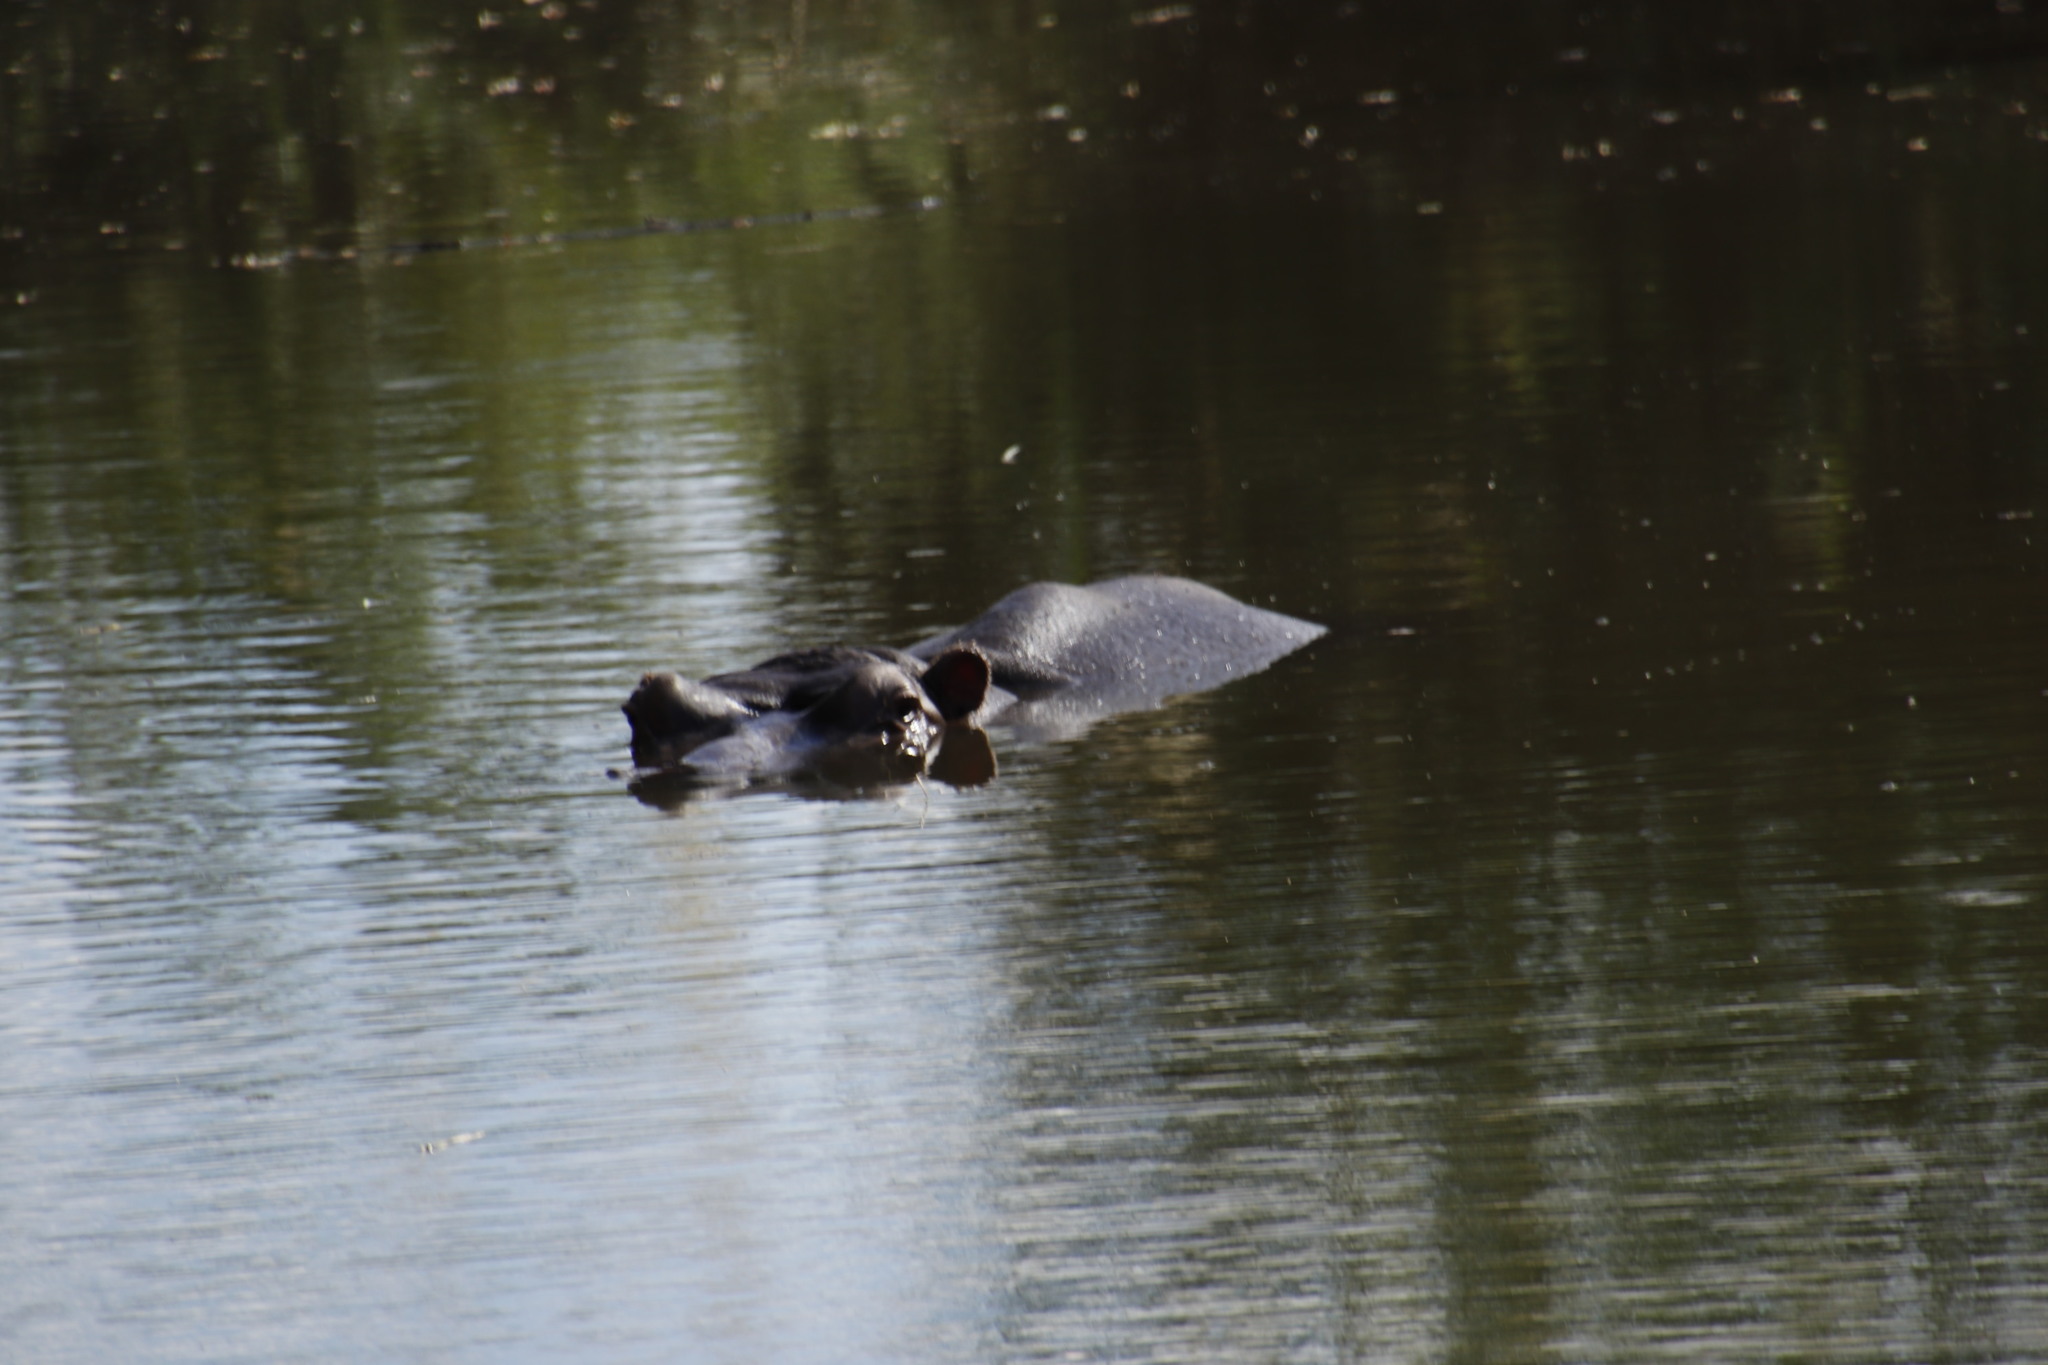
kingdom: Animalia
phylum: Chordata
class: Mammalia
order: Artiodactyla
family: Hippopotamidae
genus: Hippopotamus
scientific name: Hippopotamus amphibius
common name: Common hippopotamus
